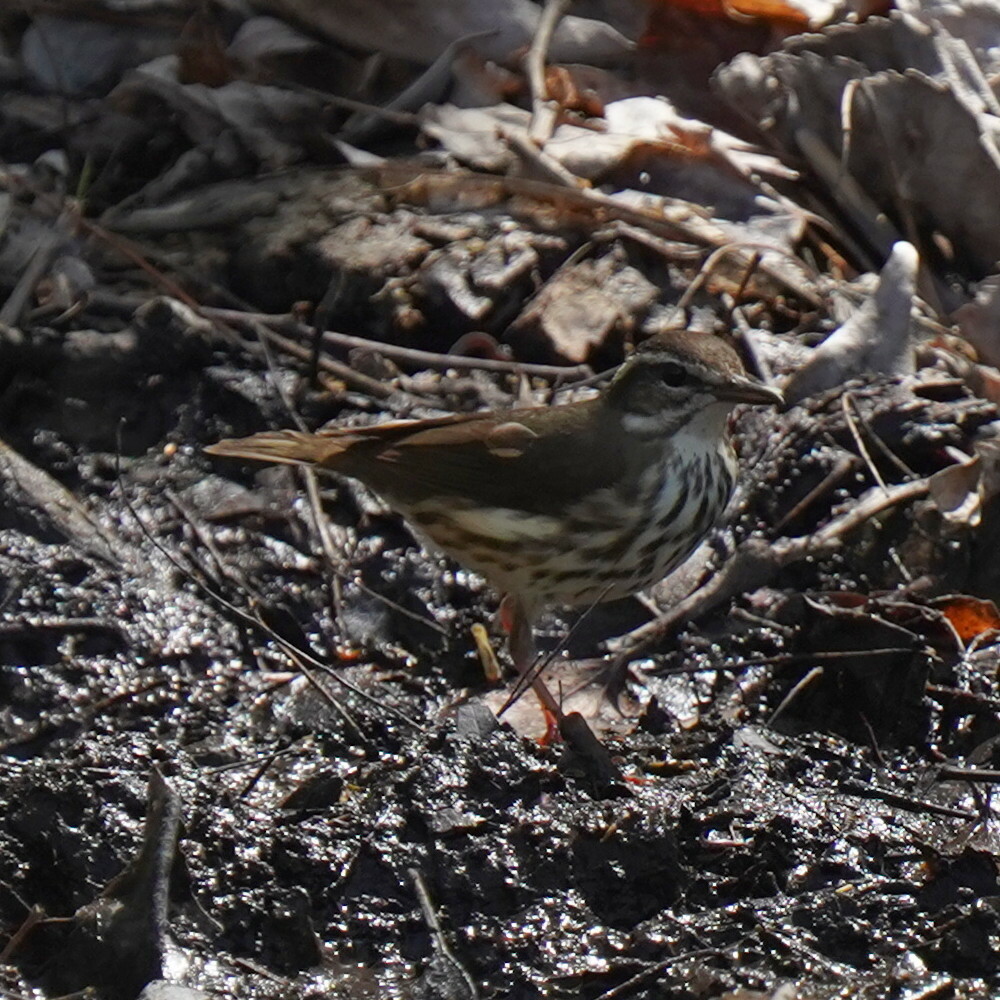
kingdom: Animalia
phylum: Chordata
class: Aves
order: Passeriformes
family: Parulidae
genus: Parkesia
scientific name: Parkesia motacilla
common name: Louisiana waterthrush
